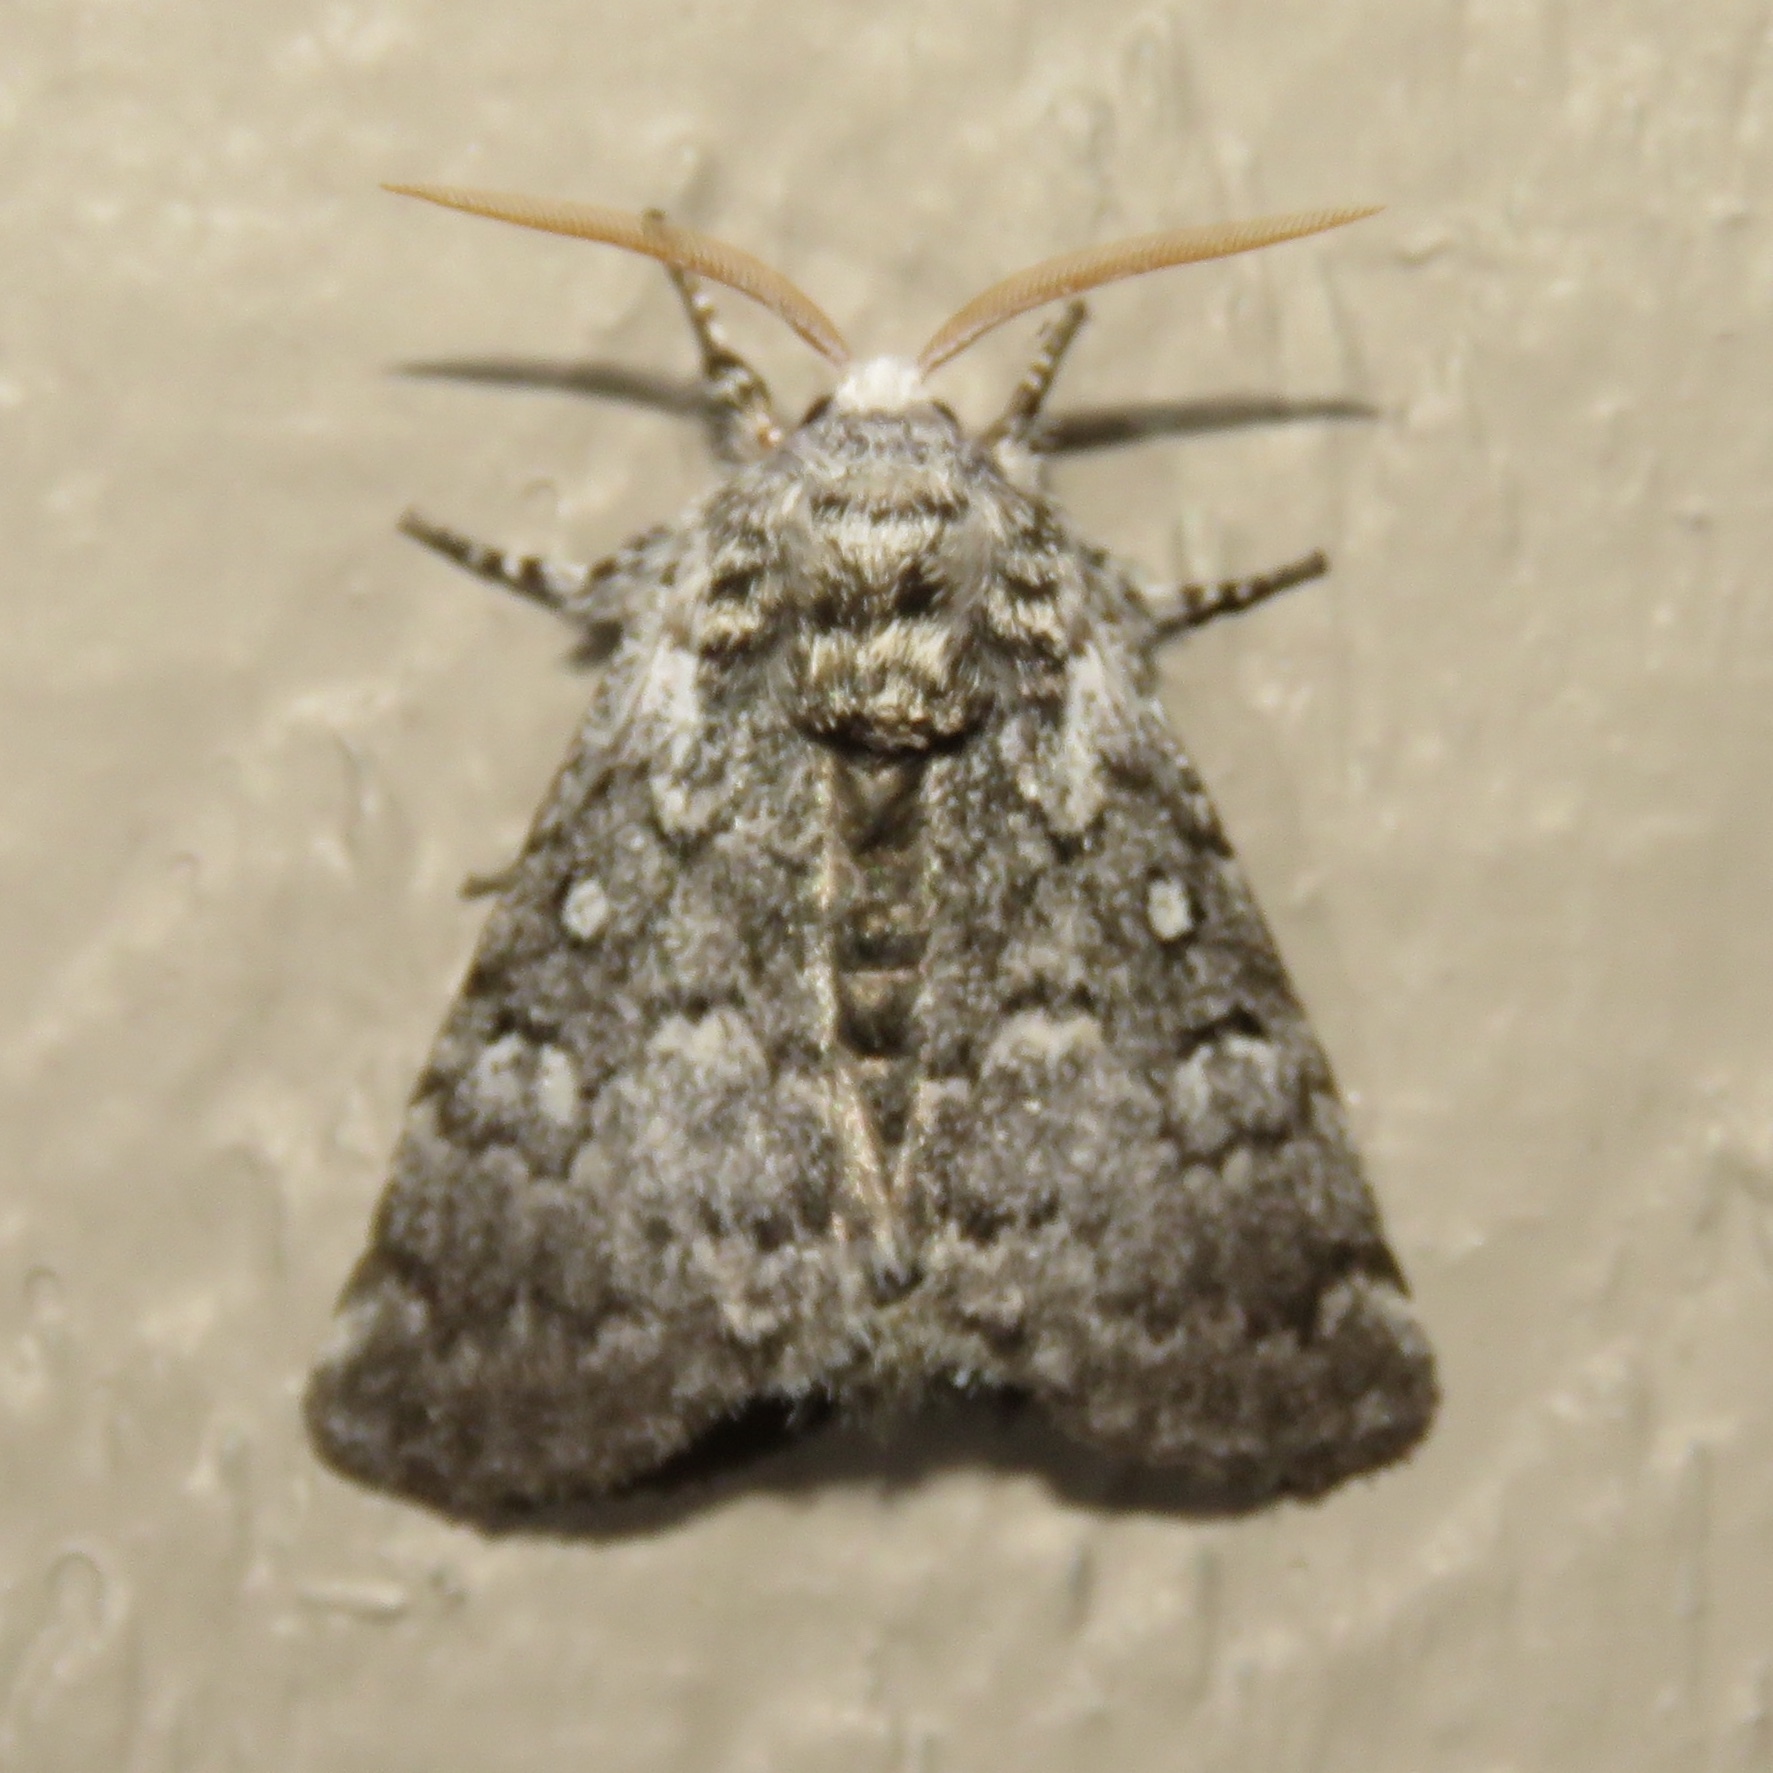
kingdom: Animalia
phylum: Arthropoda
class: Insecta
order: Lepidoptera
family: Noctuidae
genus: Colocasia
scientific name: Colocasia propinquilinea
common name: Close-banded demas
